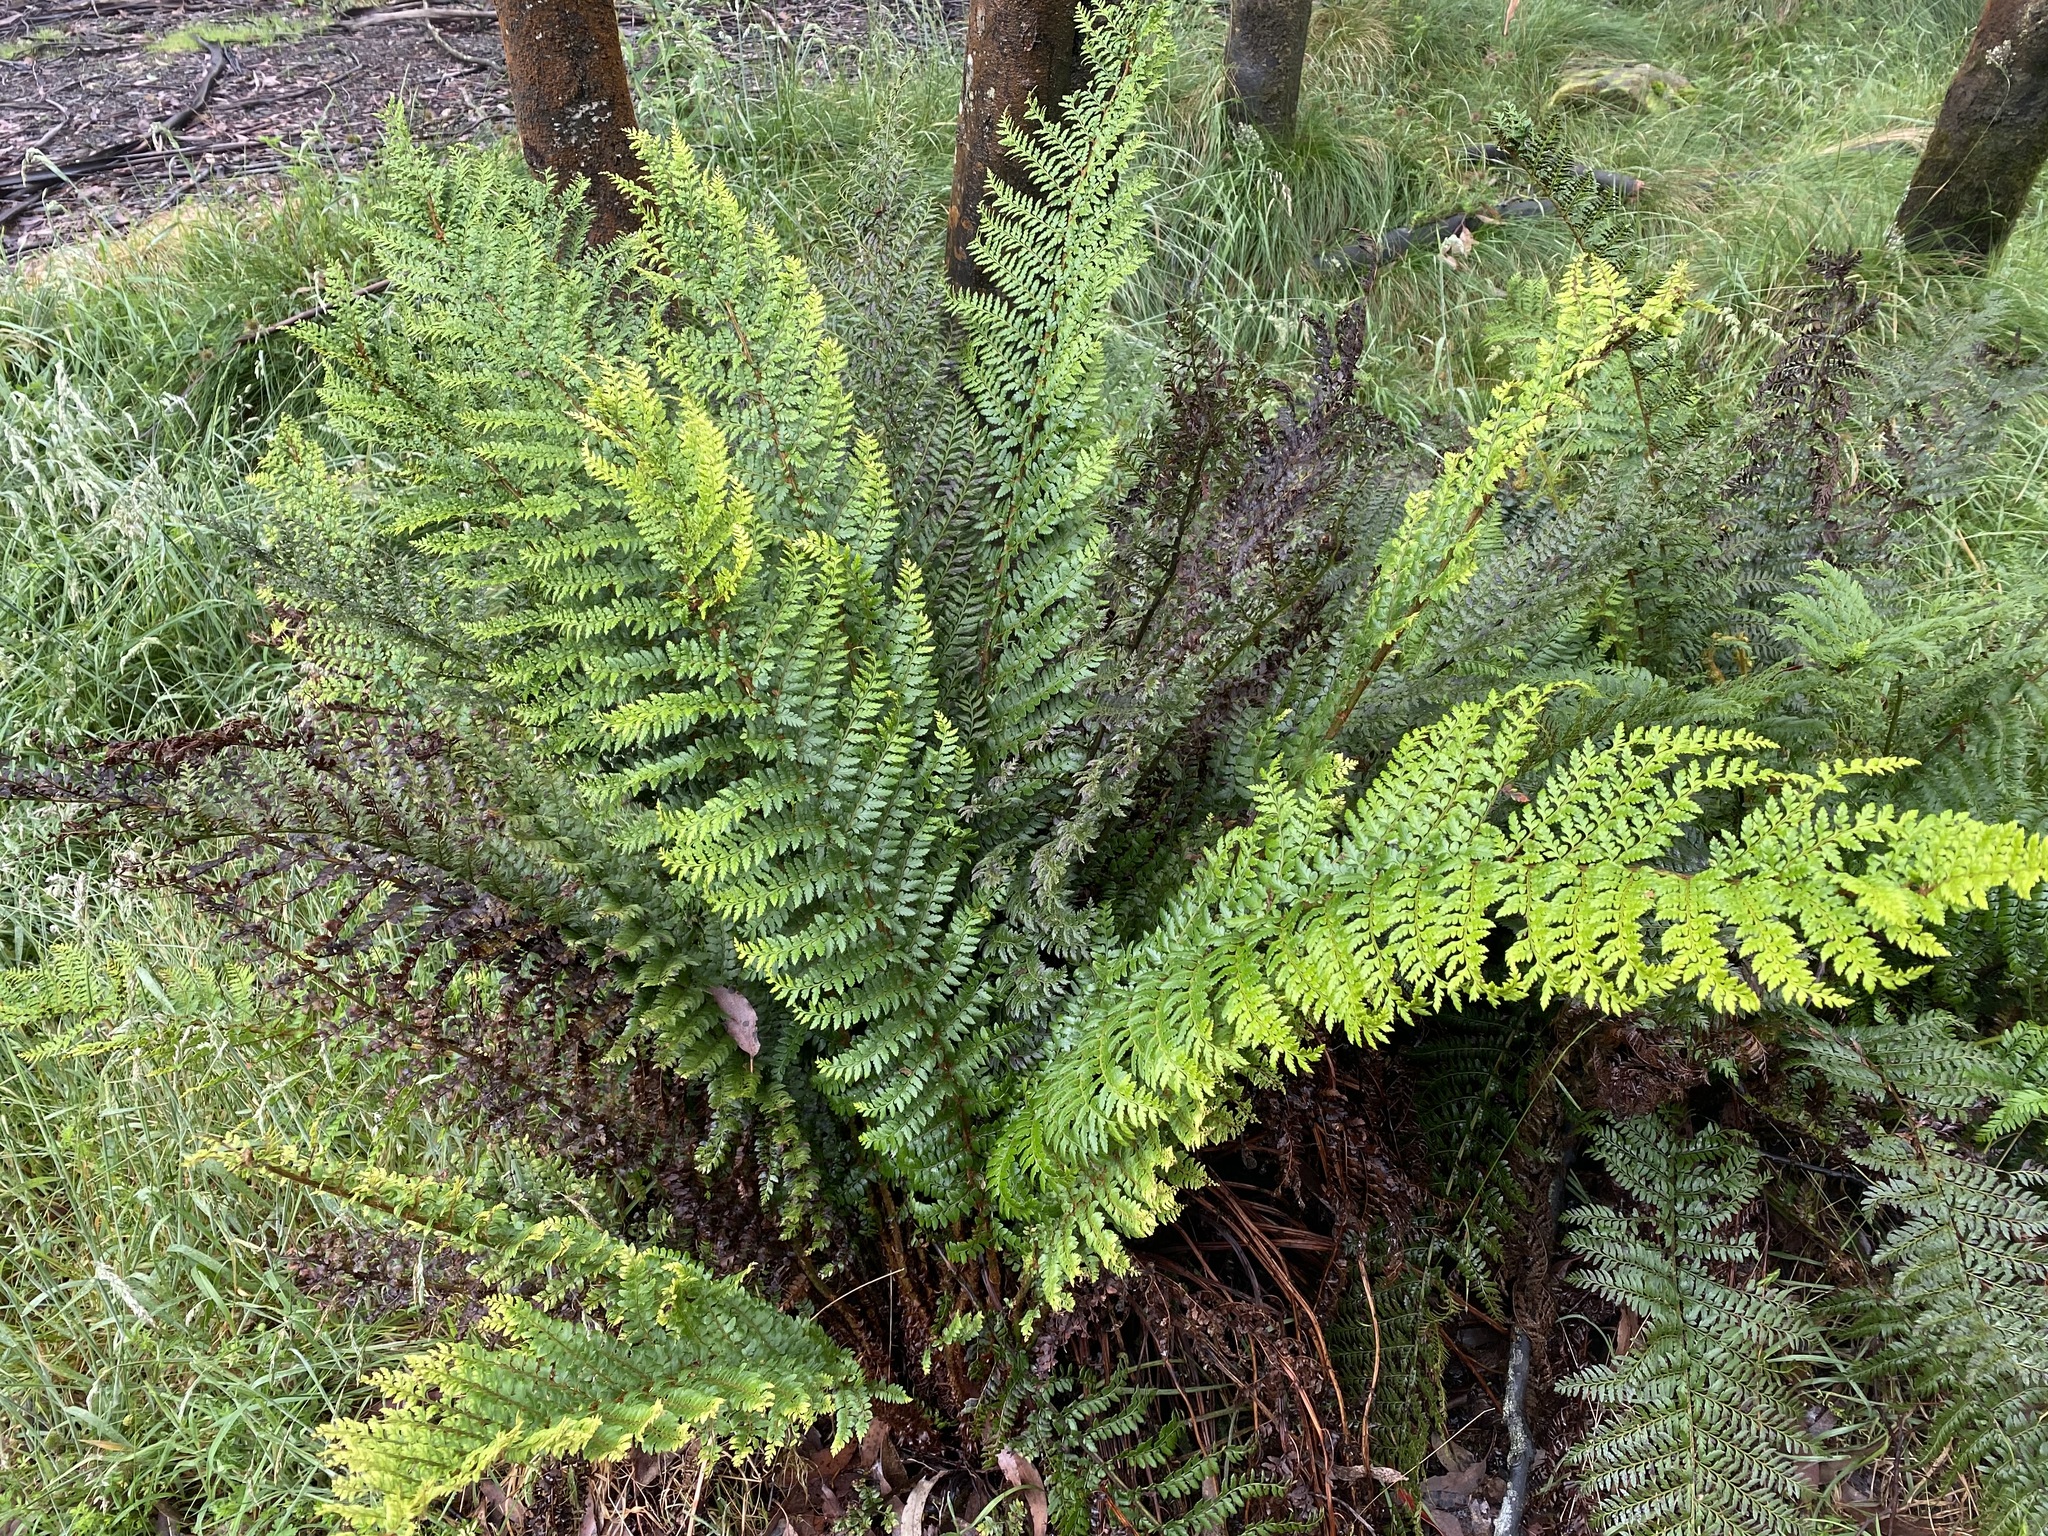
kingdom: Plantae
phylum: Tracheophyta
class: Polypodiopsida
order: Polypodiales
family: Dryopteridaceae
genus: Polystichum
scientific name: Polystichum proliferum
